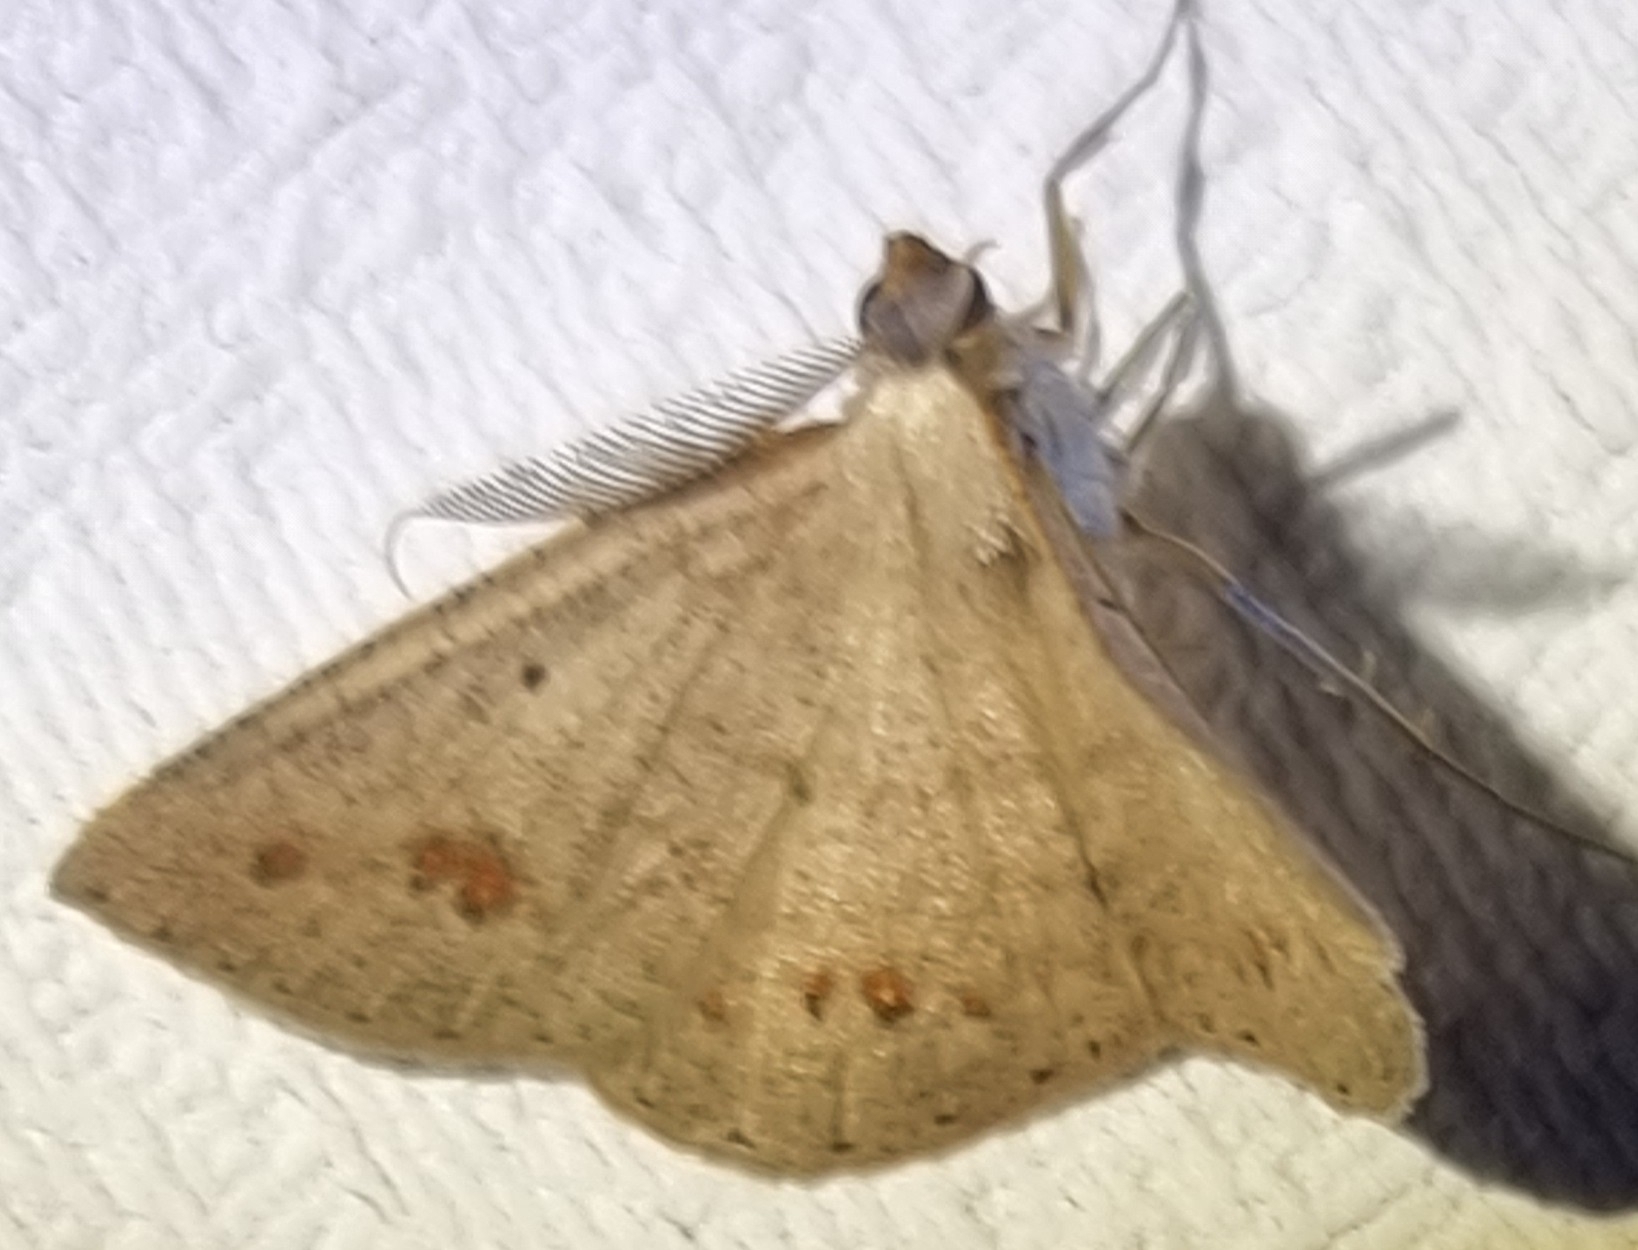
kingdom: Animalia
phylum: Arthropoda
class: Insecta
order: Lepidoptera
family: Geometridae
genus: Casbia
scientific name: Casbia rectaria
